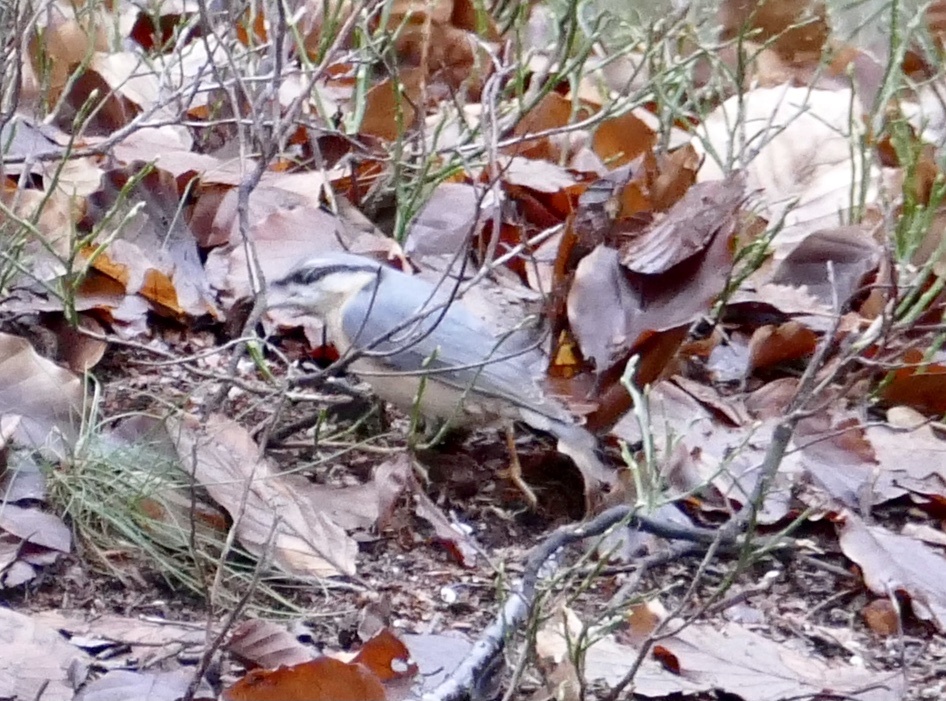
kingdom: Animalia
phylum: Chordata
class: Aves
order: Passeriformes
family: Sittidae
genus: Sitta
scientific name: Sitta europaea
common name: Eurasian nuthatch
